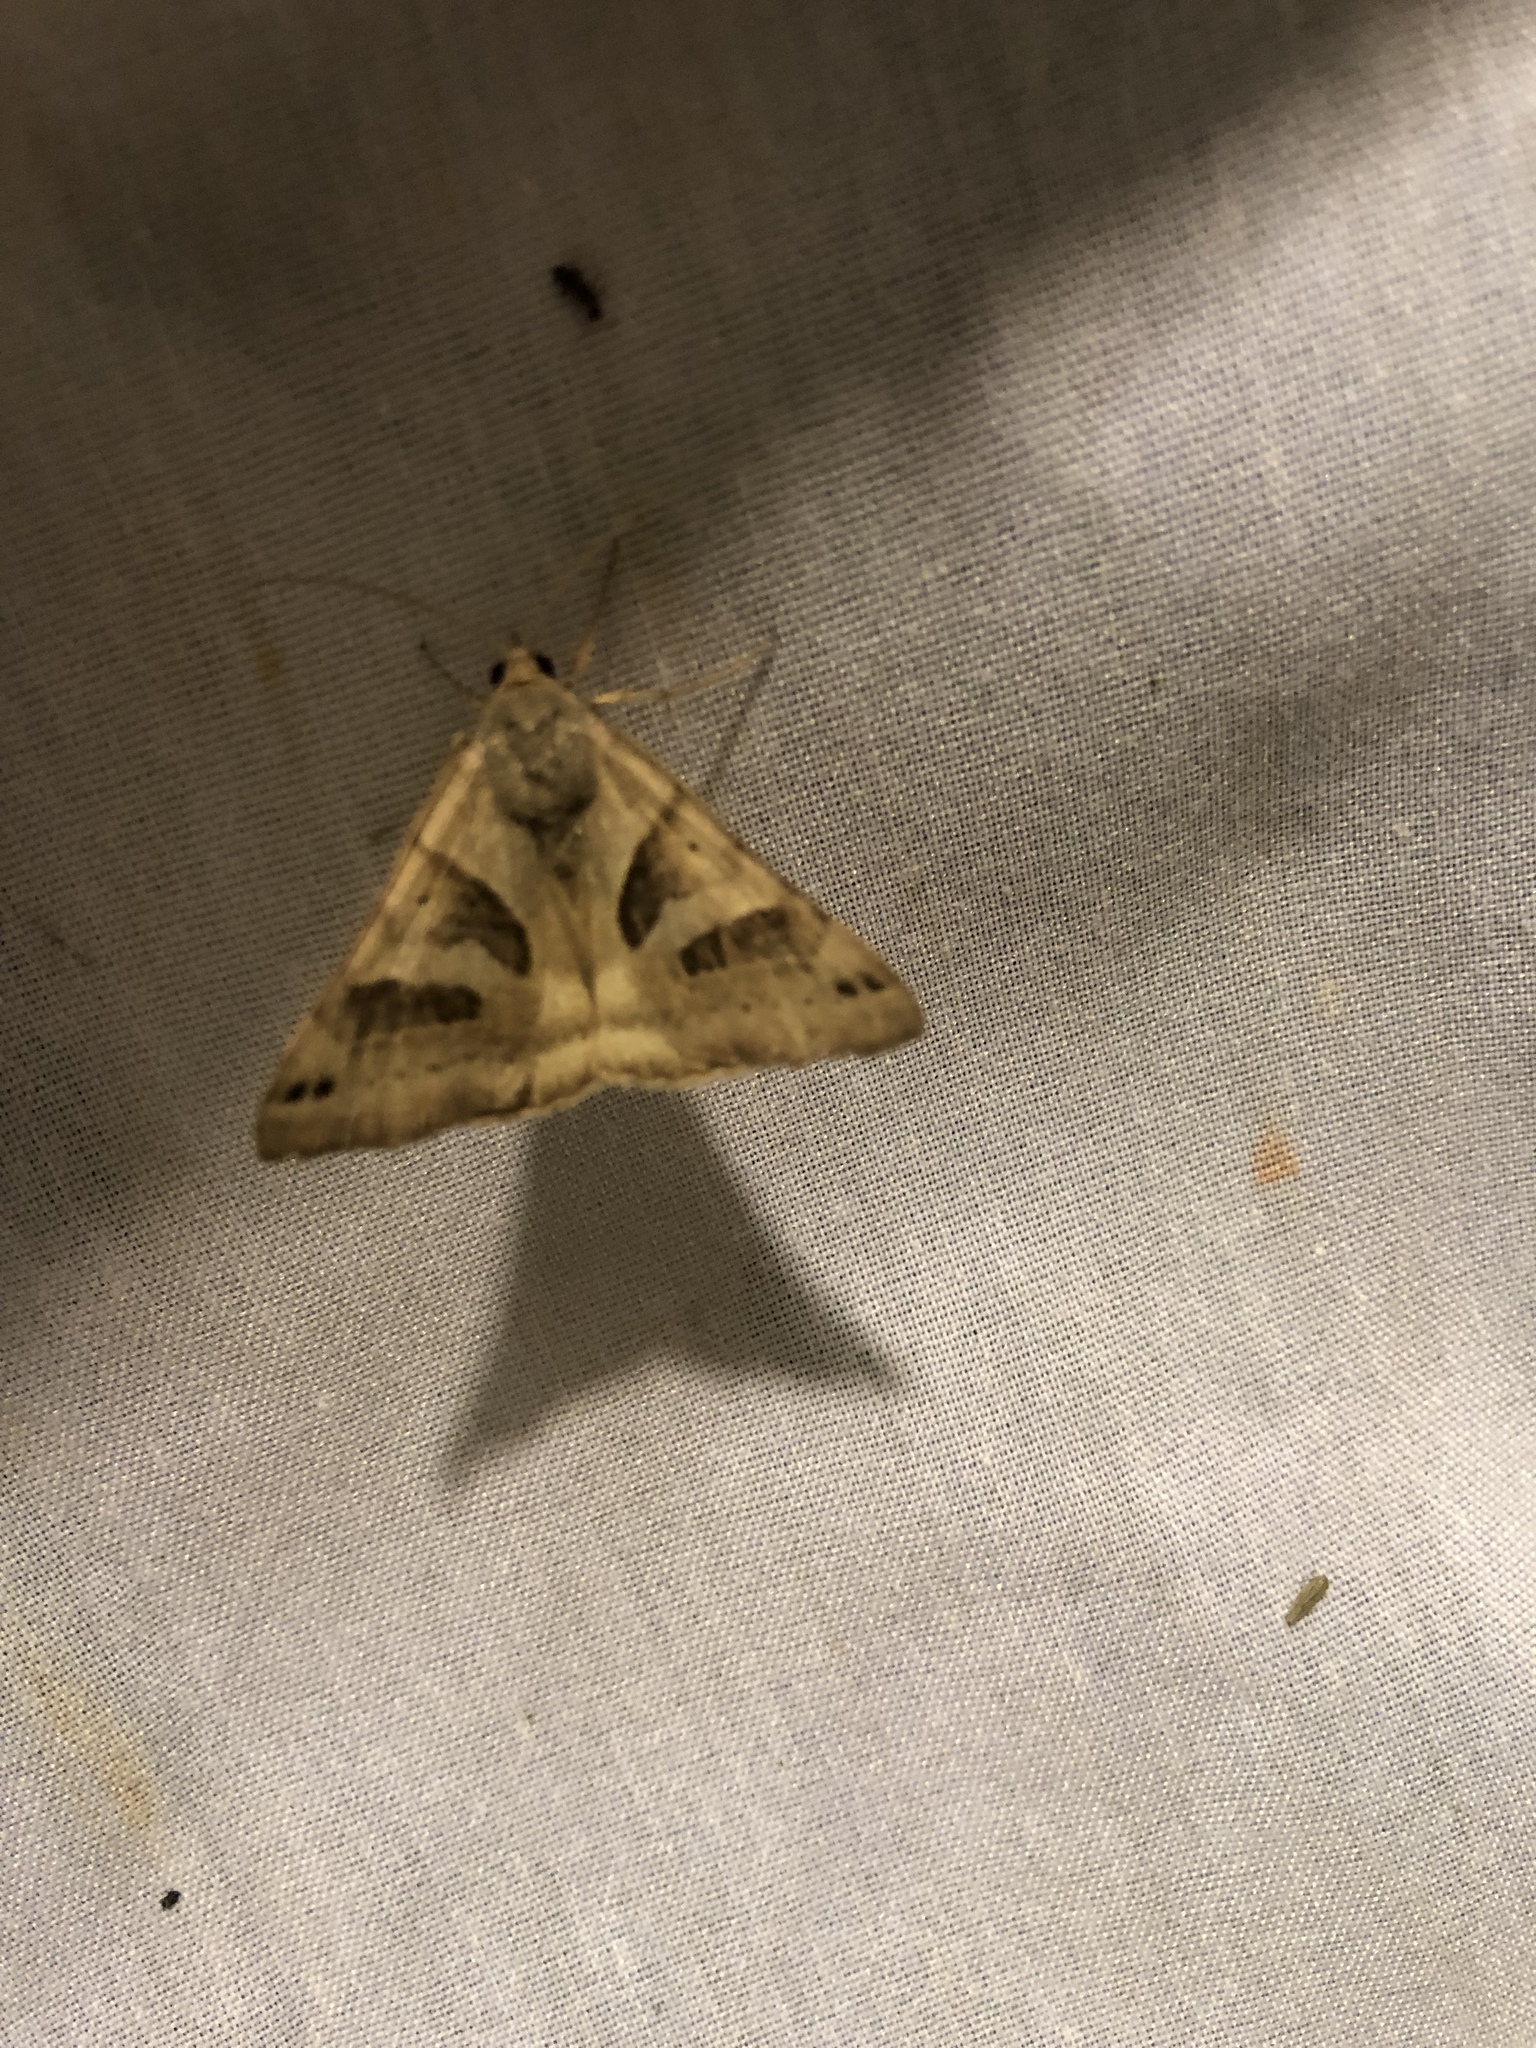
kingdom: Animalia
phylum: Arthropoda
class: Insecta
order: Lepidoptera
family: Erebidae
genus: Caenurgina
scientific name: Caenurgina erechtea
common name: Forage looper moth
